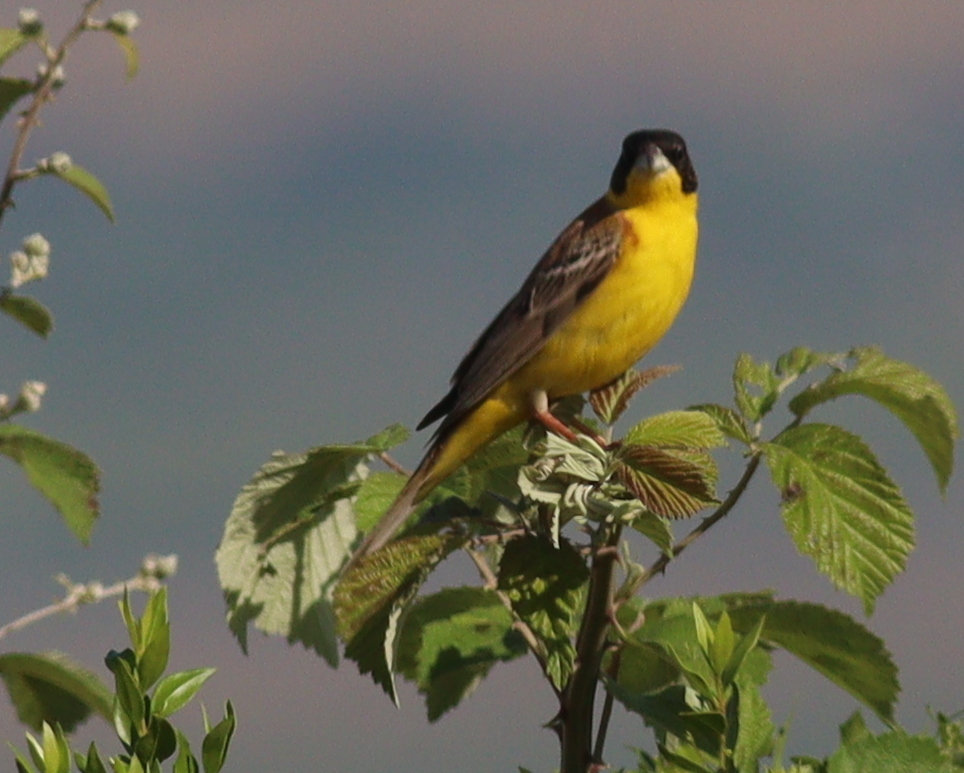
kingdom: Animalia
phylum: Chordata
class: Aves
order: Passeriformes
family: Emberizidae
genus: Emberiza
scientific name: Emberiza melanocephala
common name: Black-headed bunting
